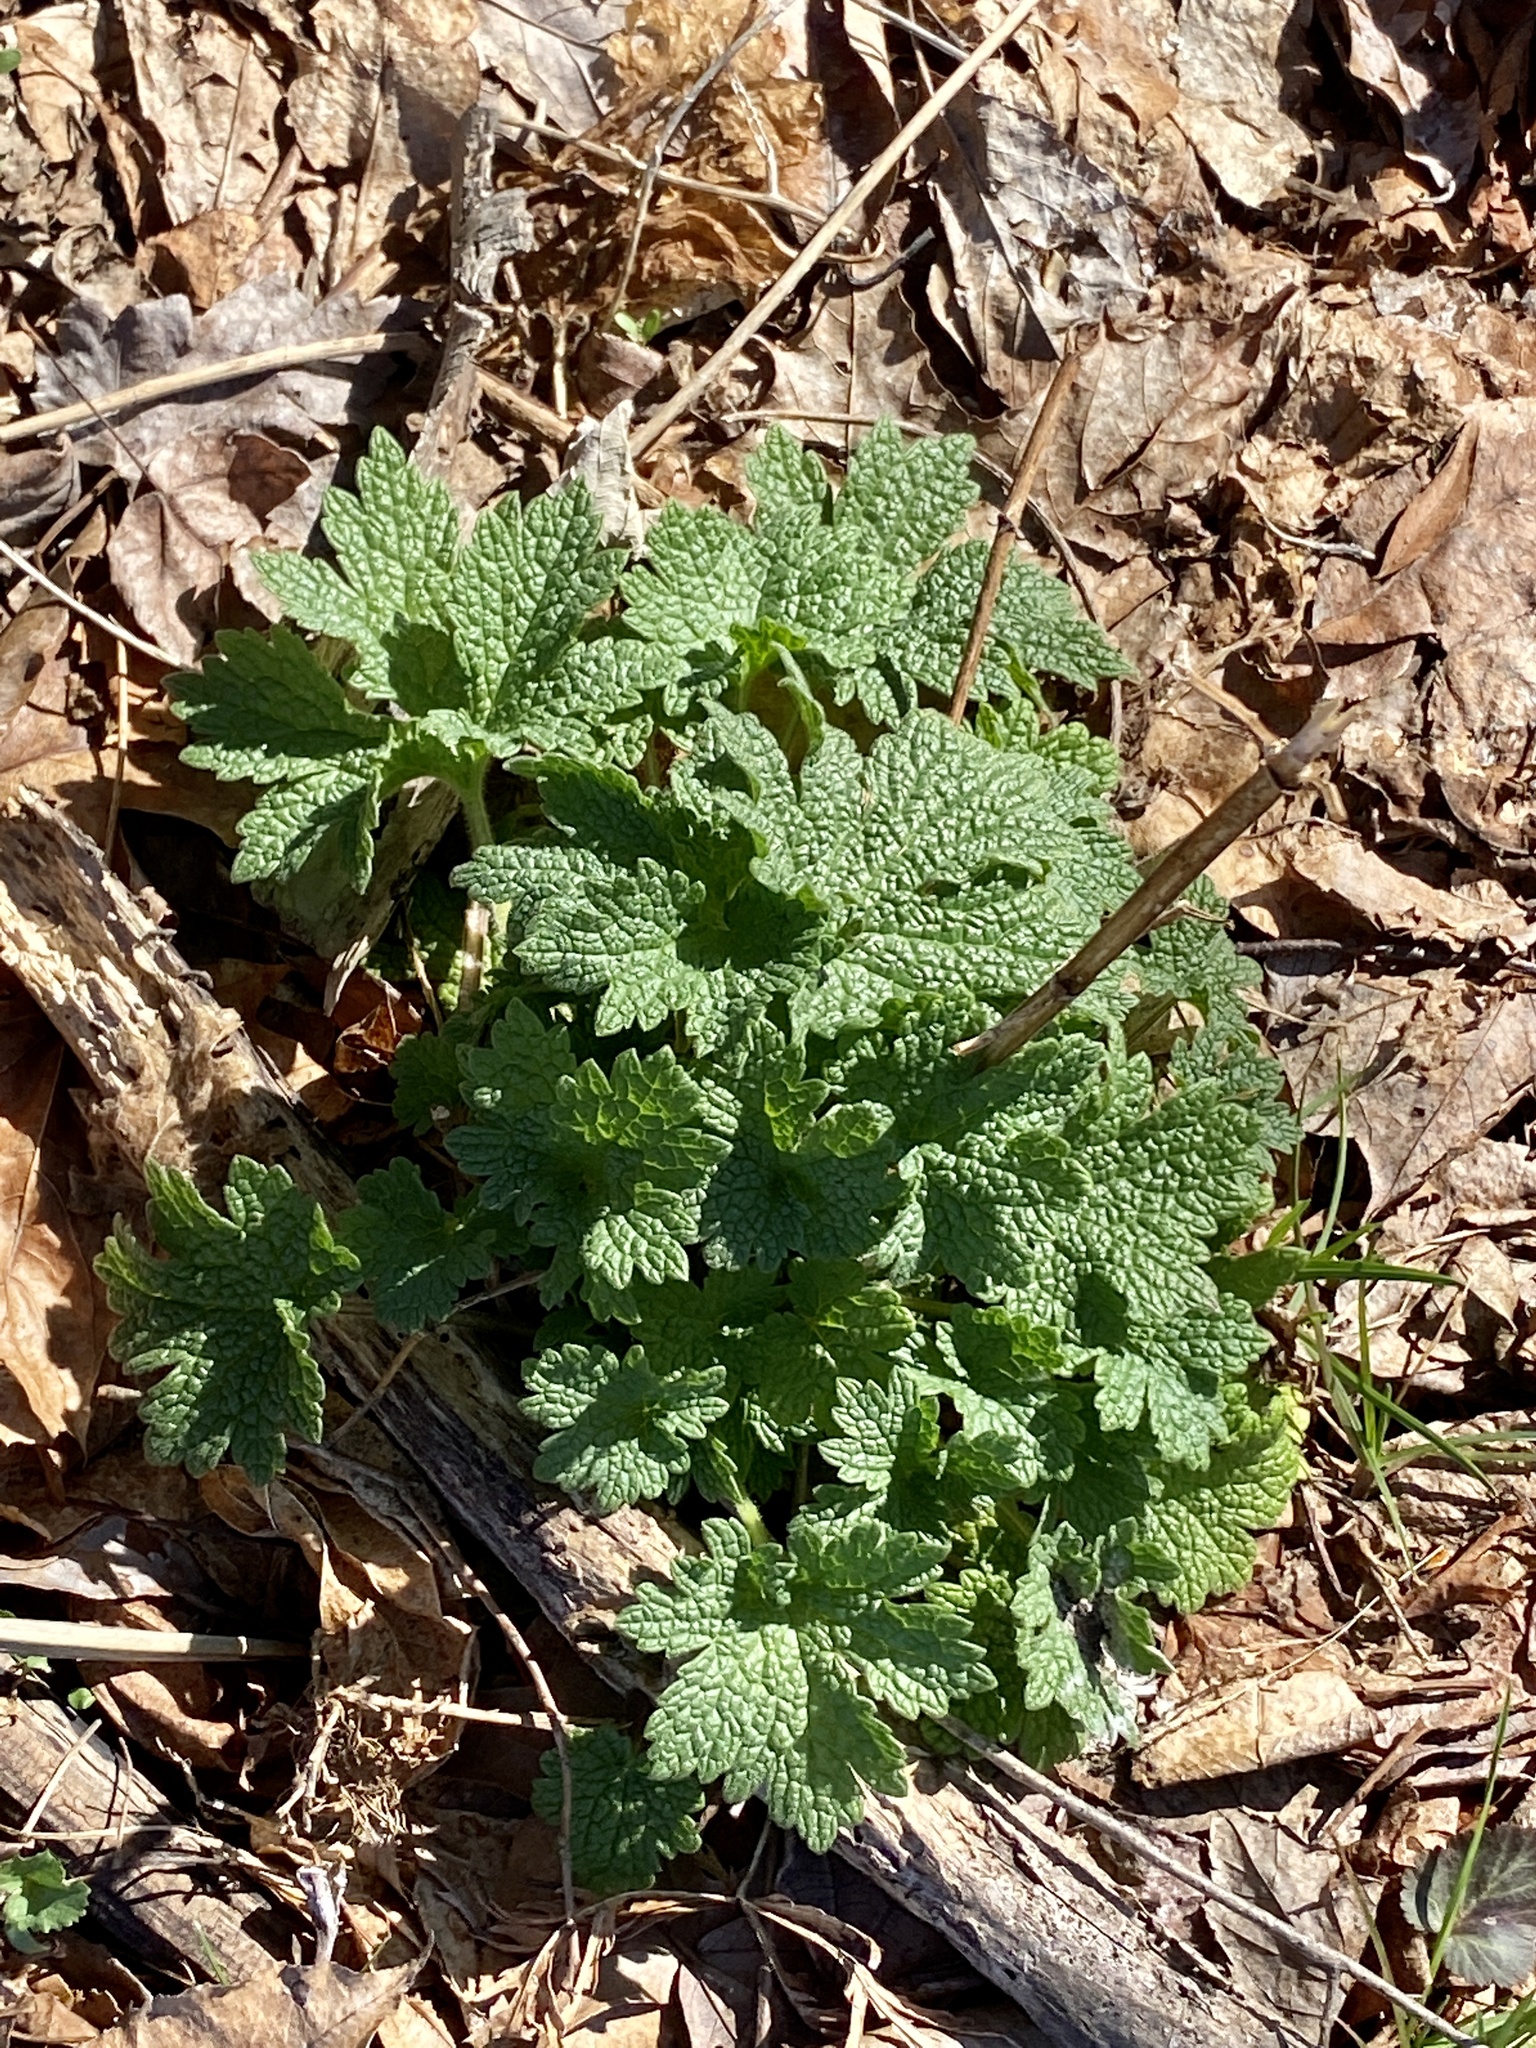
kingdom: Plantae
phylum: Tracheophyta
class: Magnoliopsida
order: Lamiales
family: Lamiaceae
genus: Leonurus
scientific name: Leonurus cardiaca
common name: Motherwort
